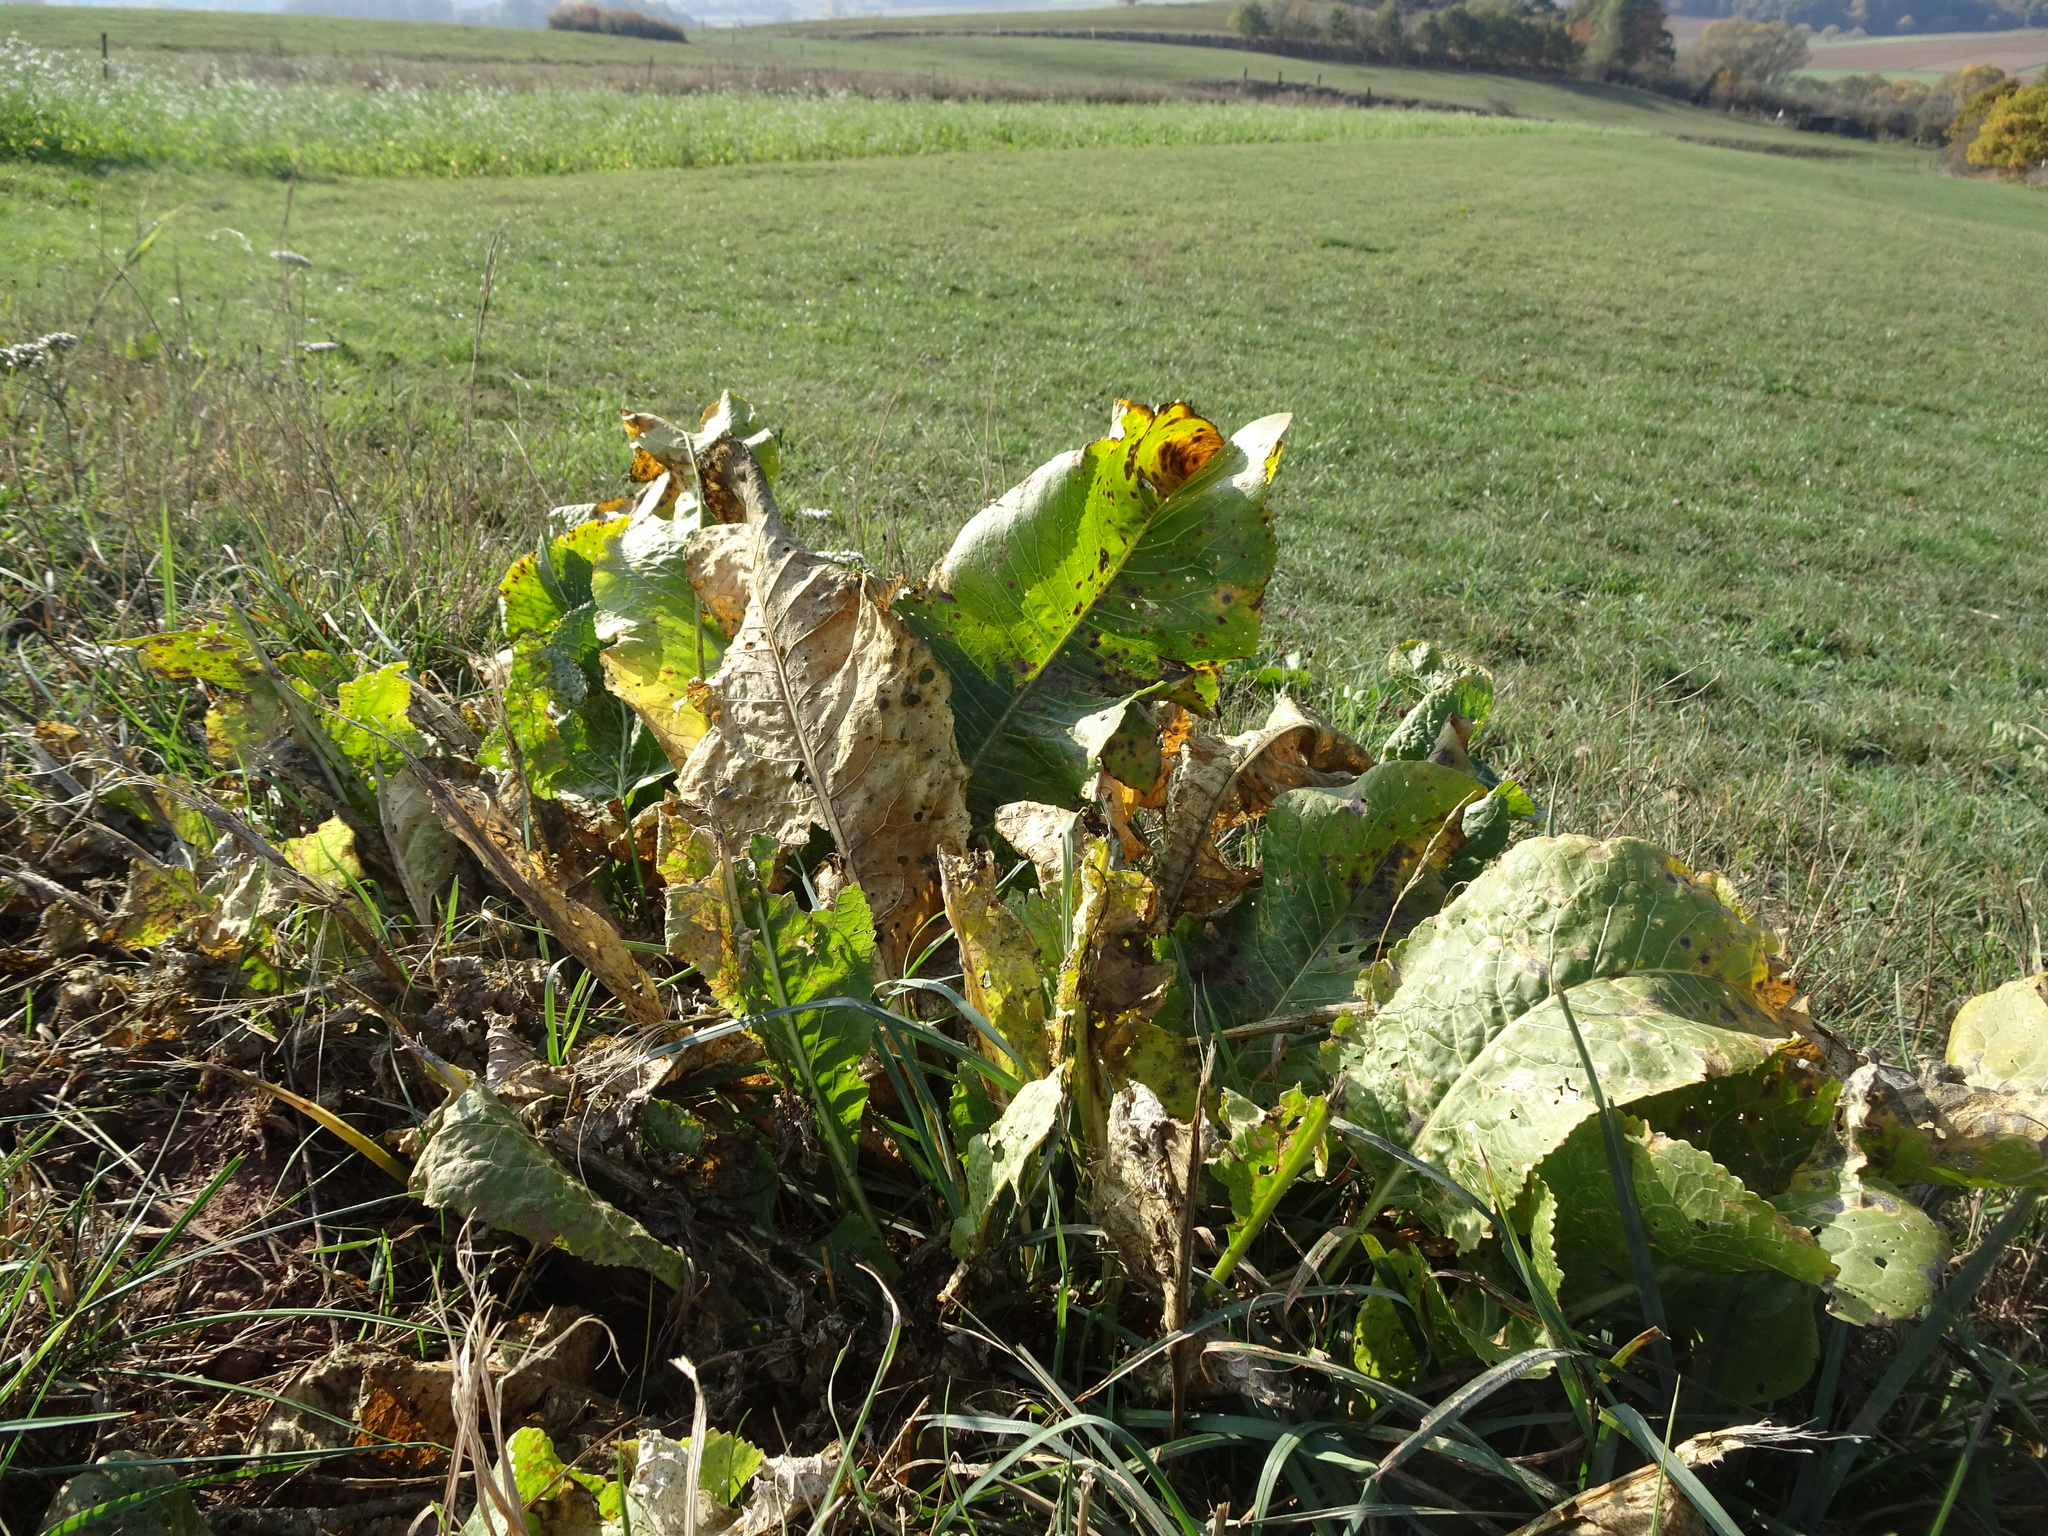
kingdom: Plantae
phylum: Tracheophyta
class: Magnoliopsida
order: Brassicales
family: Brassicaceae
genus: Armoracia
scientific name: Armoracia rusticana
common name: Horseradish
